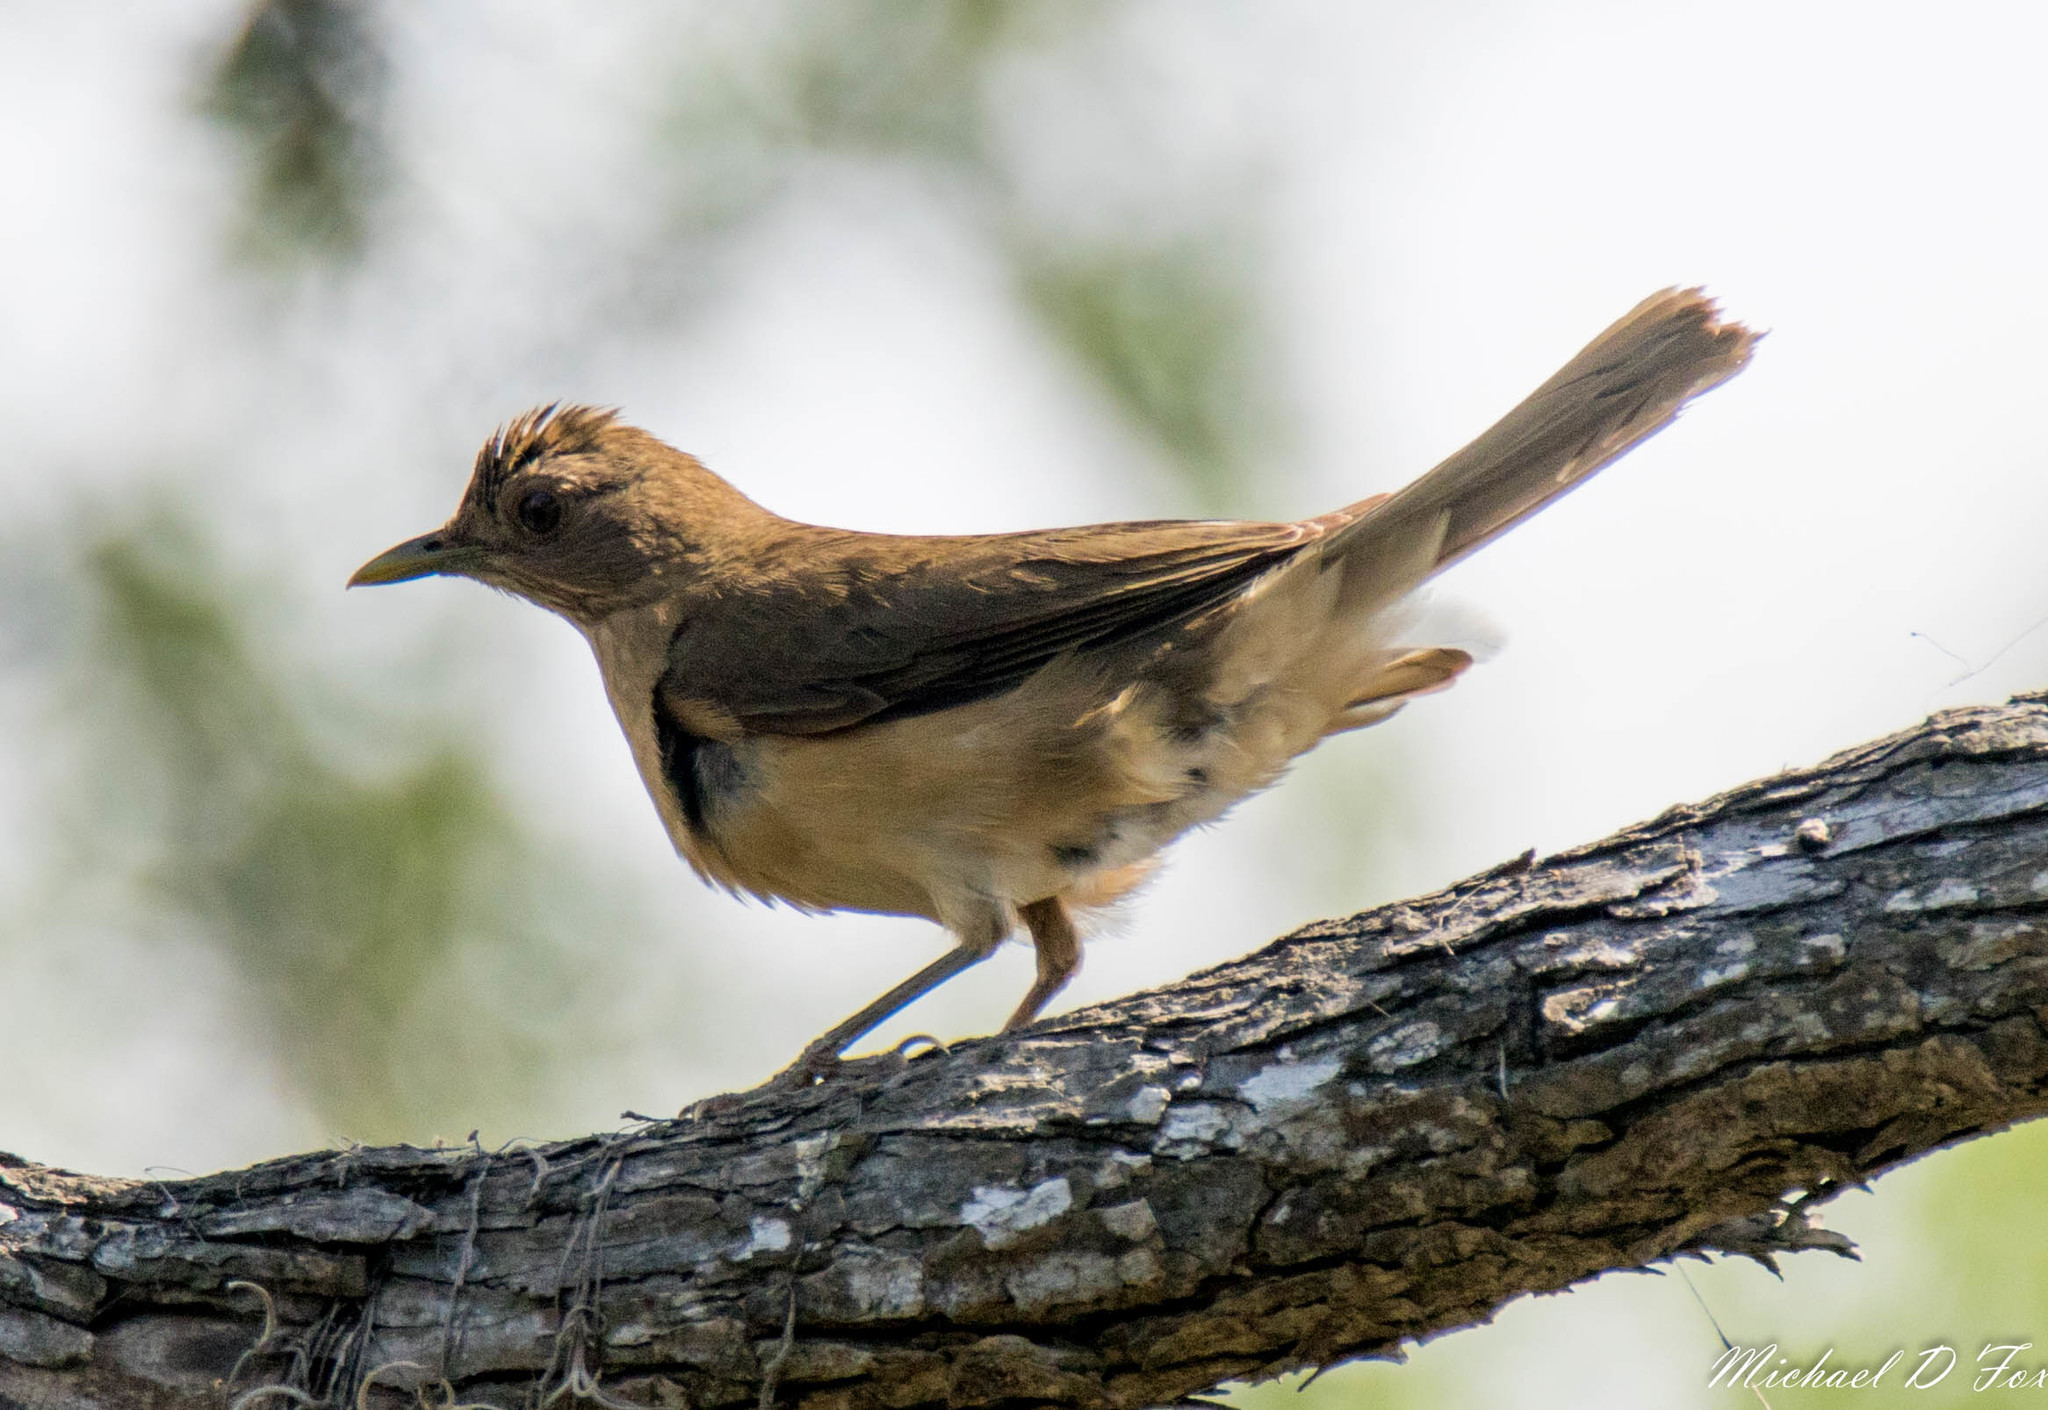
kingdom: Animalia
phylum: Chordata
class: Aves
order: Passeriformes
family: Turdidae
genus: Turdus
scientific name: Turdus grayi
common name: Clay-colored thrush
